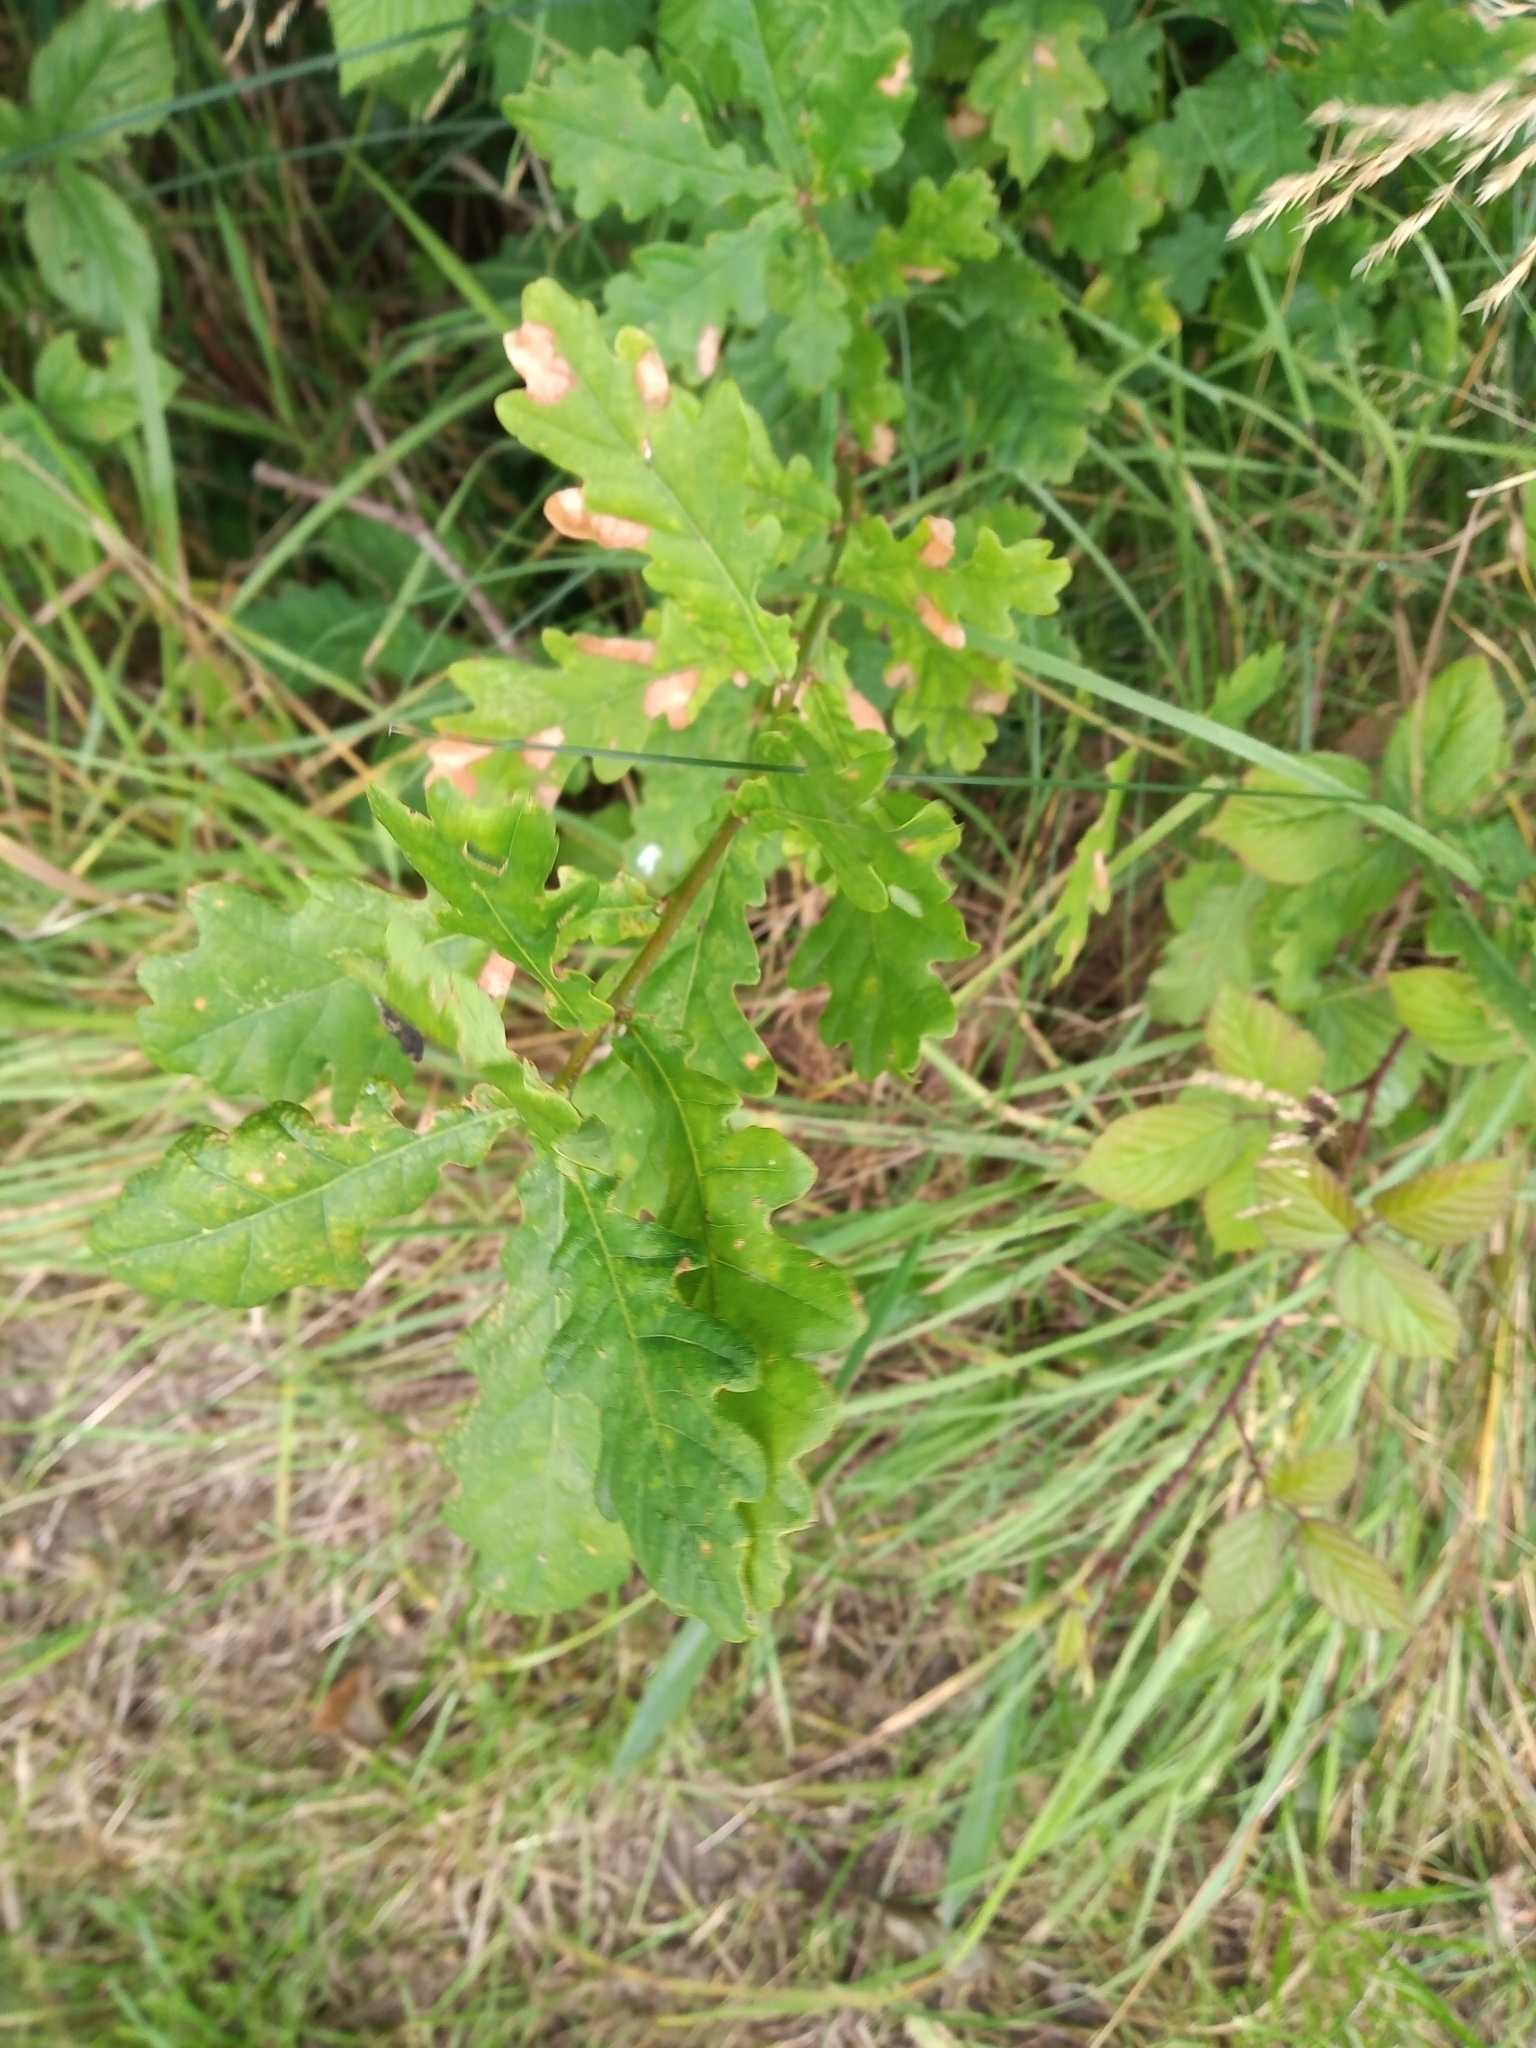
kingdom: Plantae
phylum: Tracheophyta
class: Magnoliopsida
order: Fagales
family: Fagaceae
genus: Quercus
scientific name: Quercus robur
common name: Pedunculate oak
